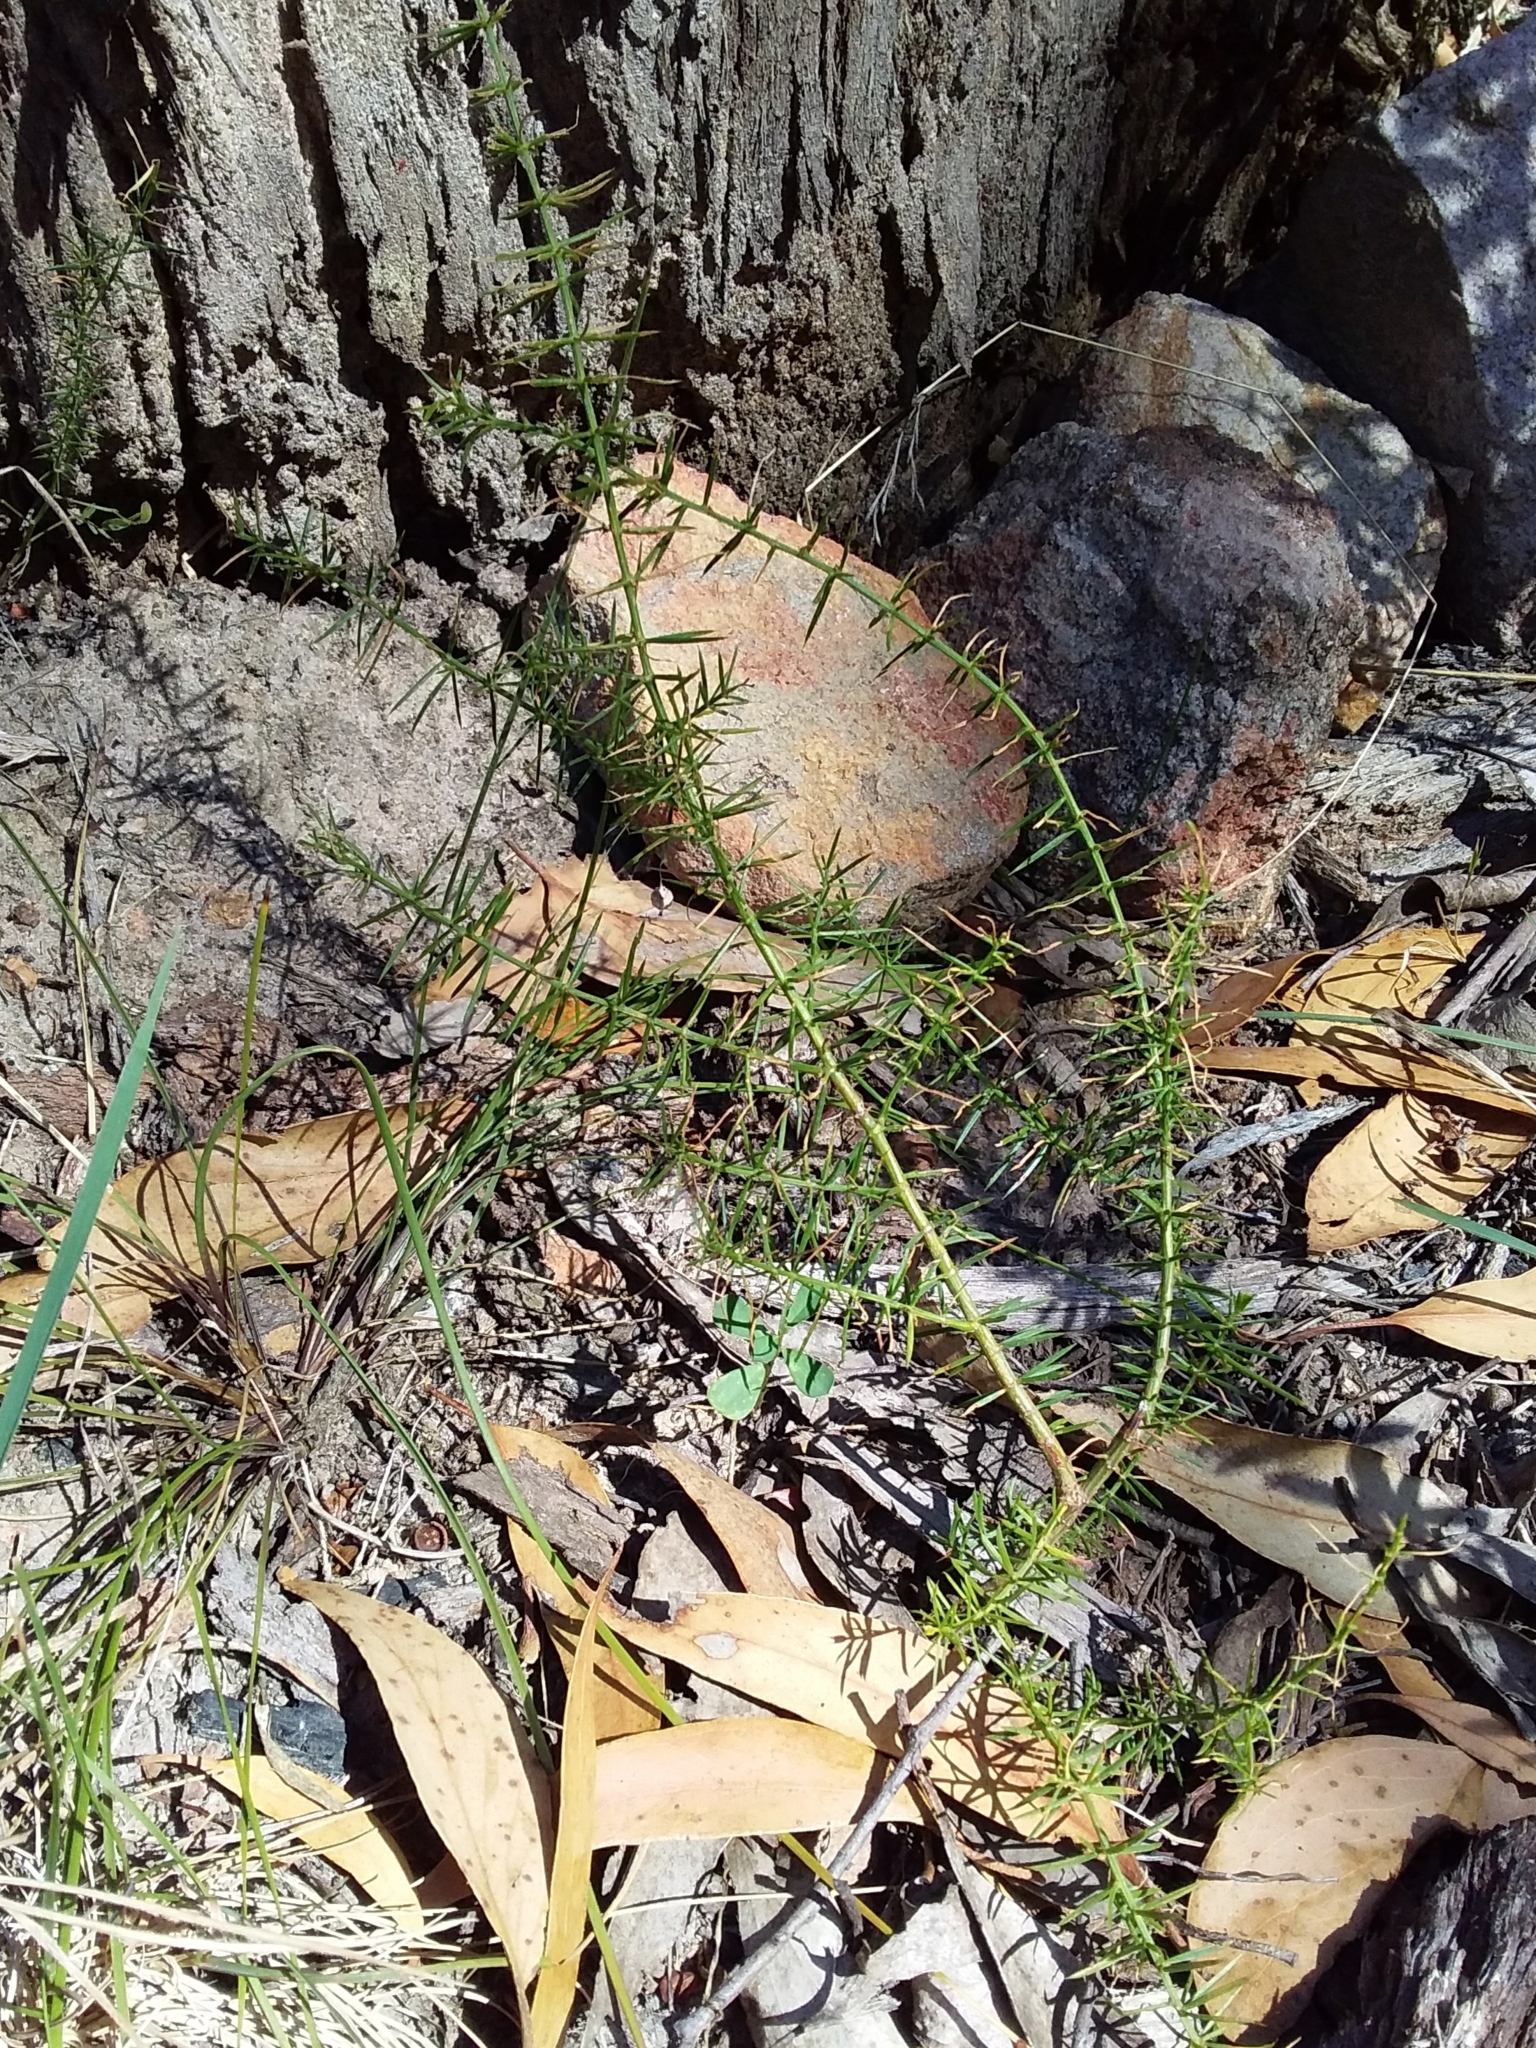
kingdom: Plantae
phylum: Tracheophyta
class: Magnoliopsida
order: Fabales
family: Fabaceae
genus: Acacia
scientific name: Acacia verticillata
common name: Prickly moses
